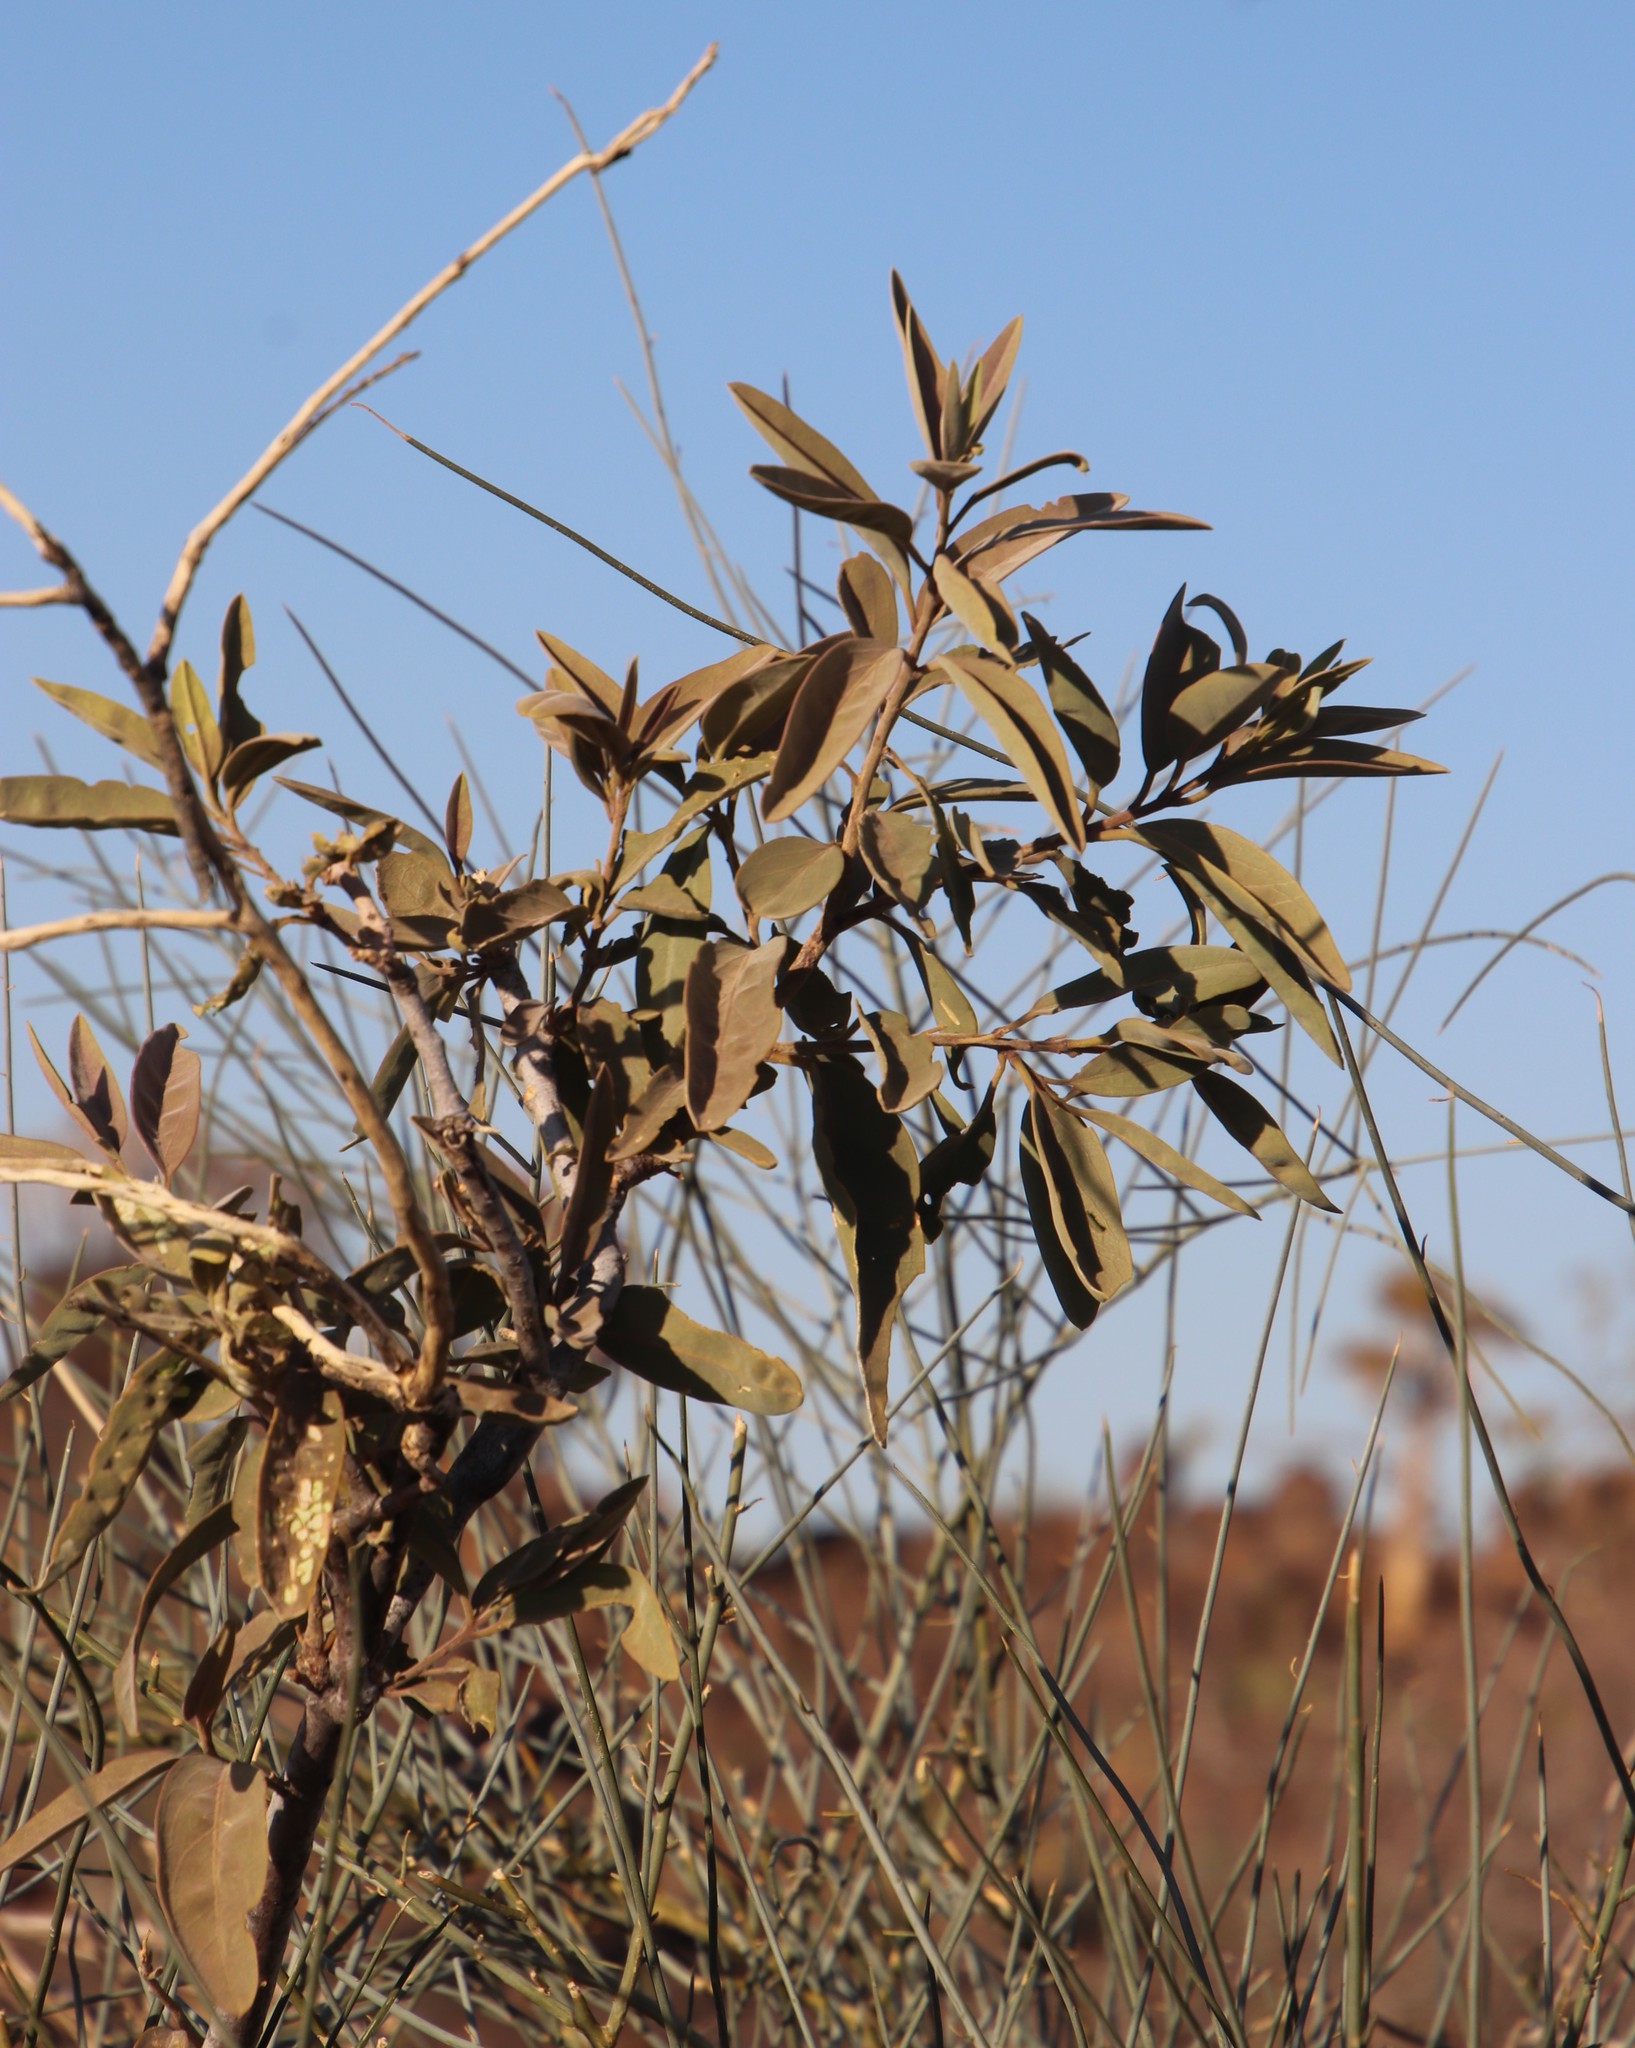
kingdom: Plantae
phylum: Tracheophyta
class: Magnoliopsida
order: Brassicales
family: Capparaceae
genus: Maerua
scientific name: Maerua schinzii
